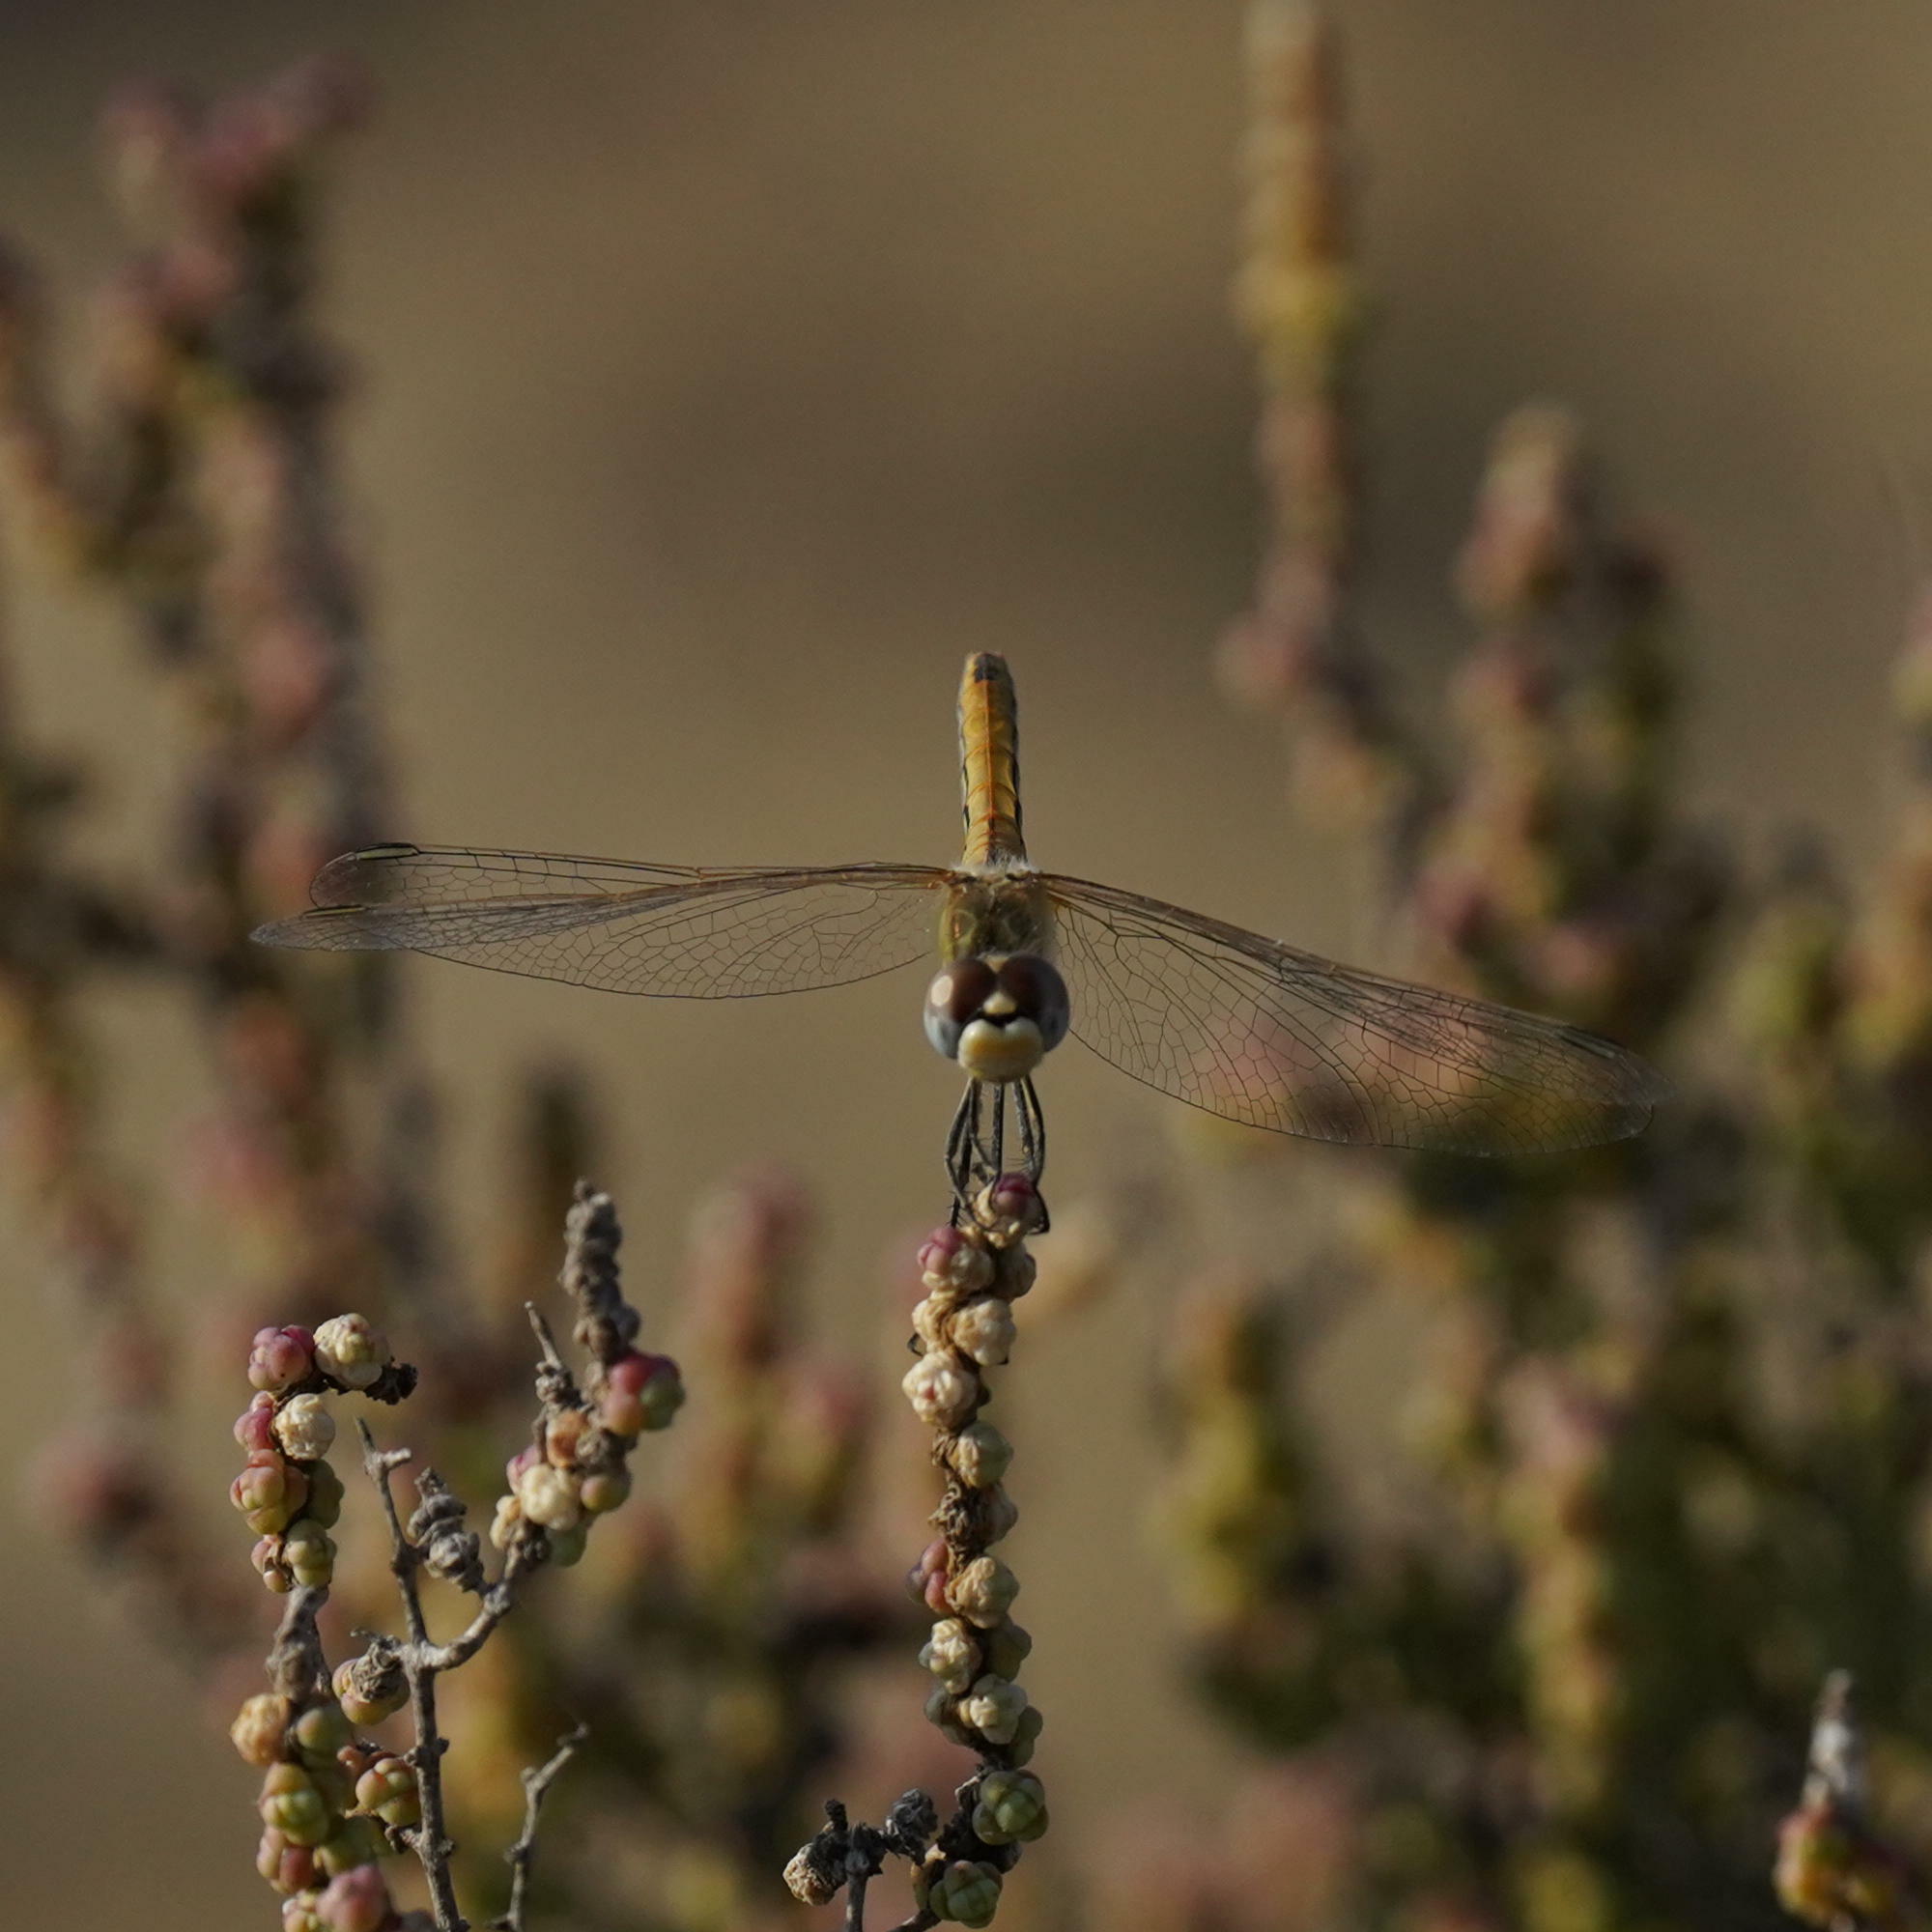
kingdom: Animalia
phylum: Arthropoda
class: Insecta
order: Odonata
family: Libellulidae
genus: Sympetrum
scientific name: Sympetrum fonscolombii
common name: Red-veined darter
